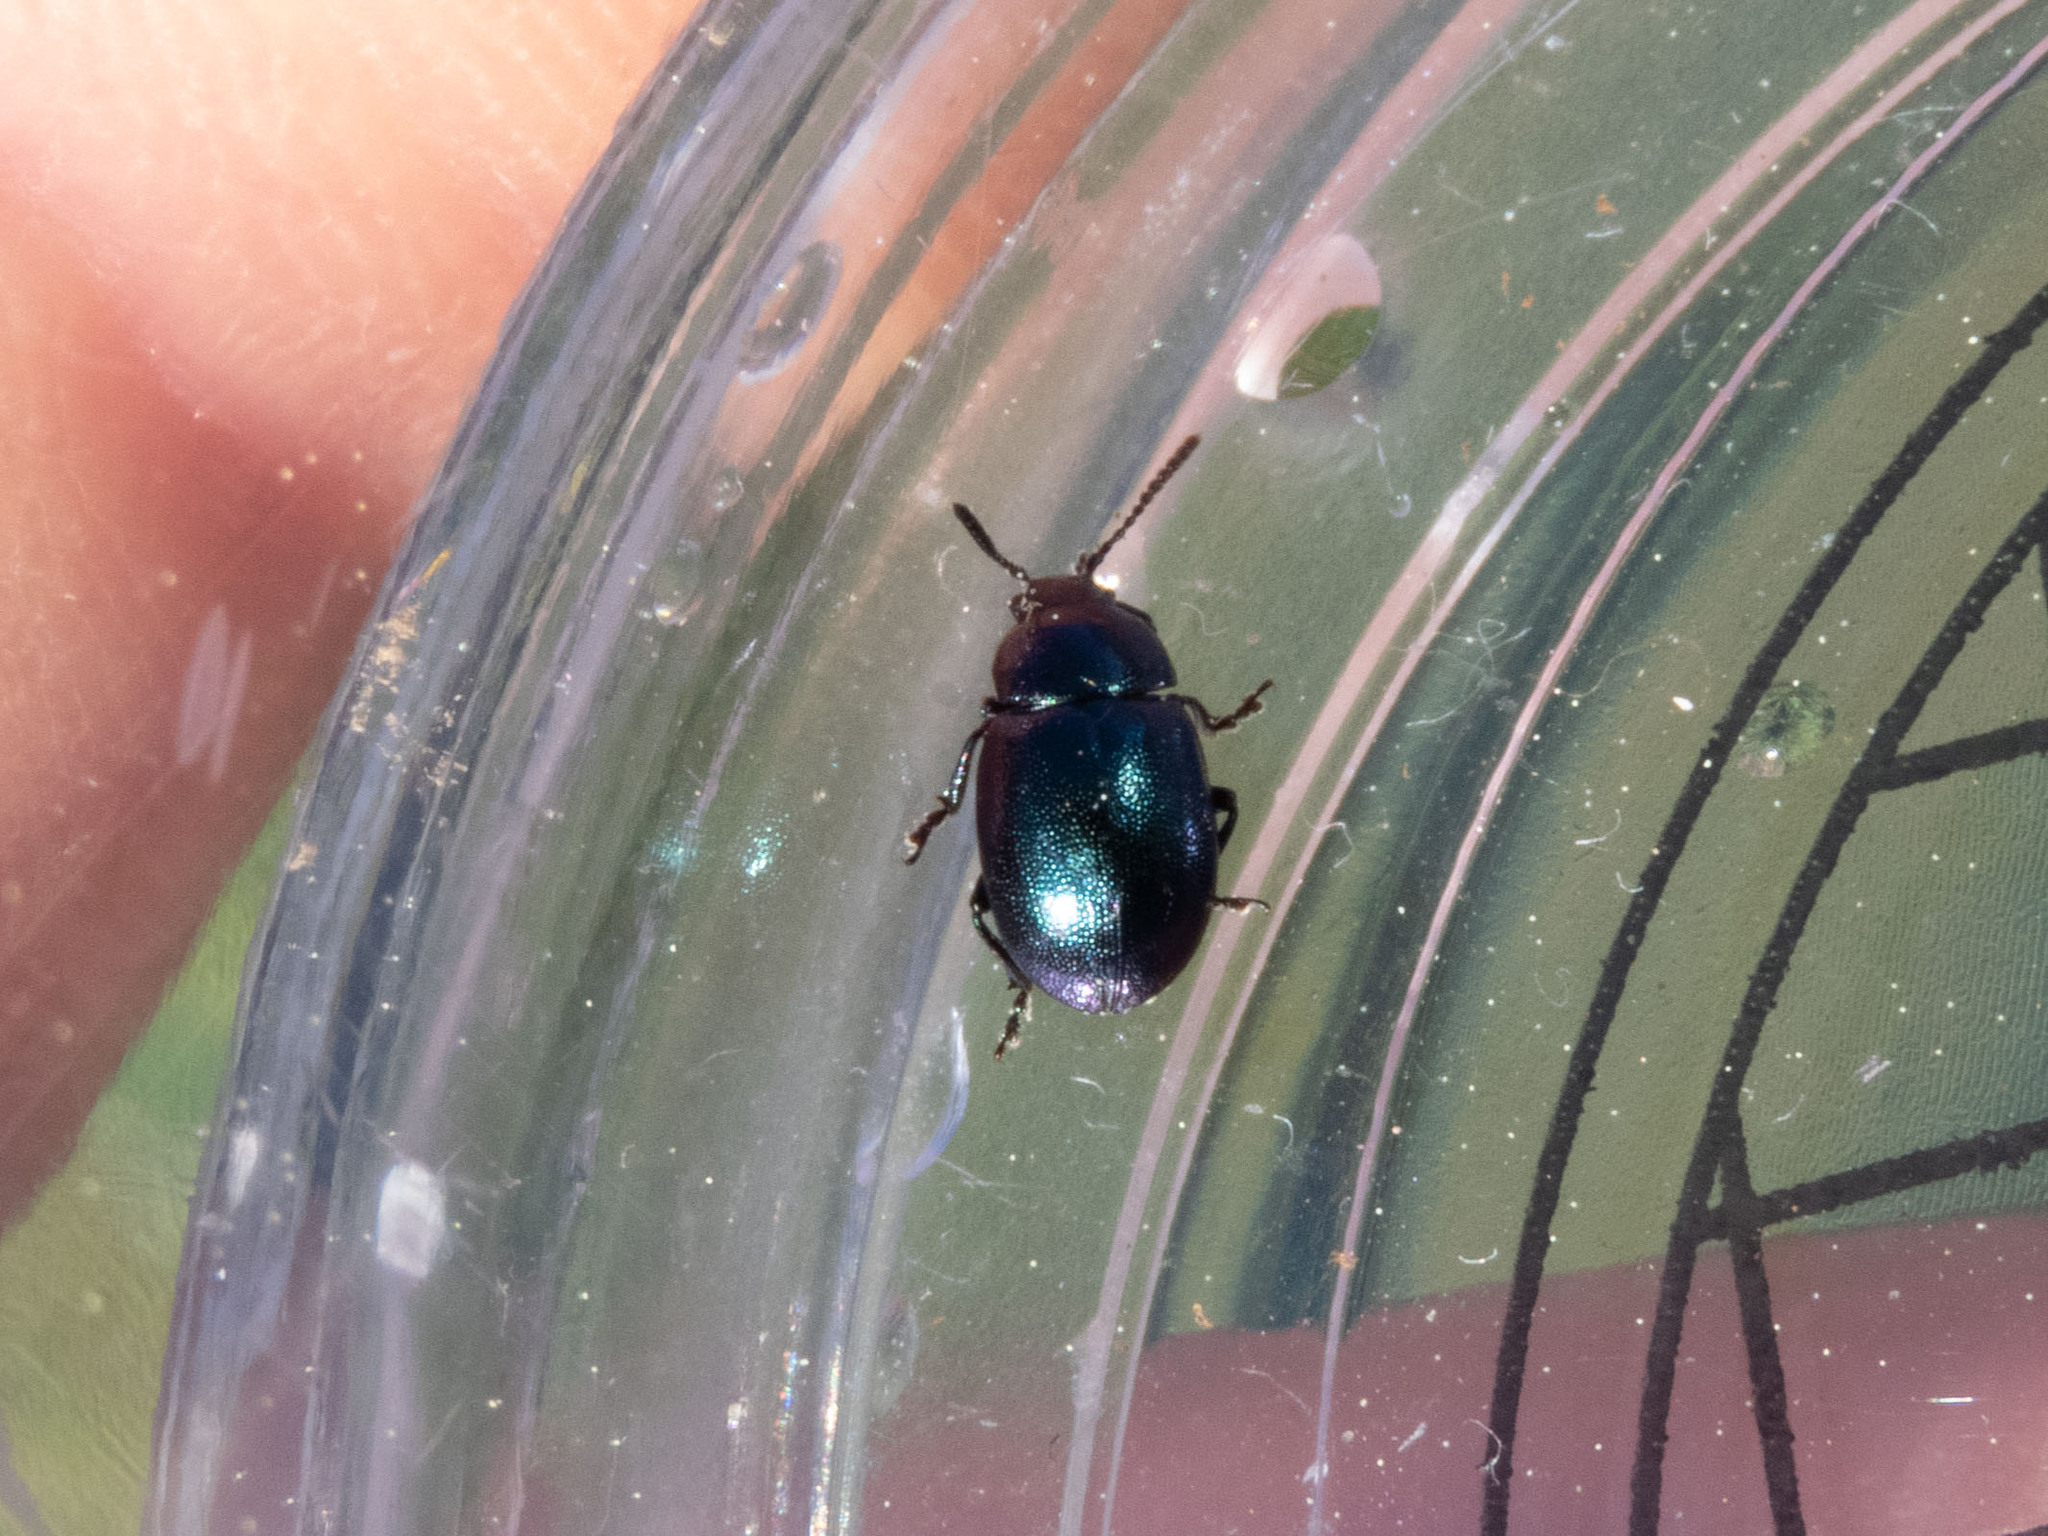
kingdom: Animalia
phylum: Arthropoda
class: Insecta
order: Coleoptera
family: Chrysomelidae
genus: Gastrophysa
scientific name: Gastrophysa janthina
